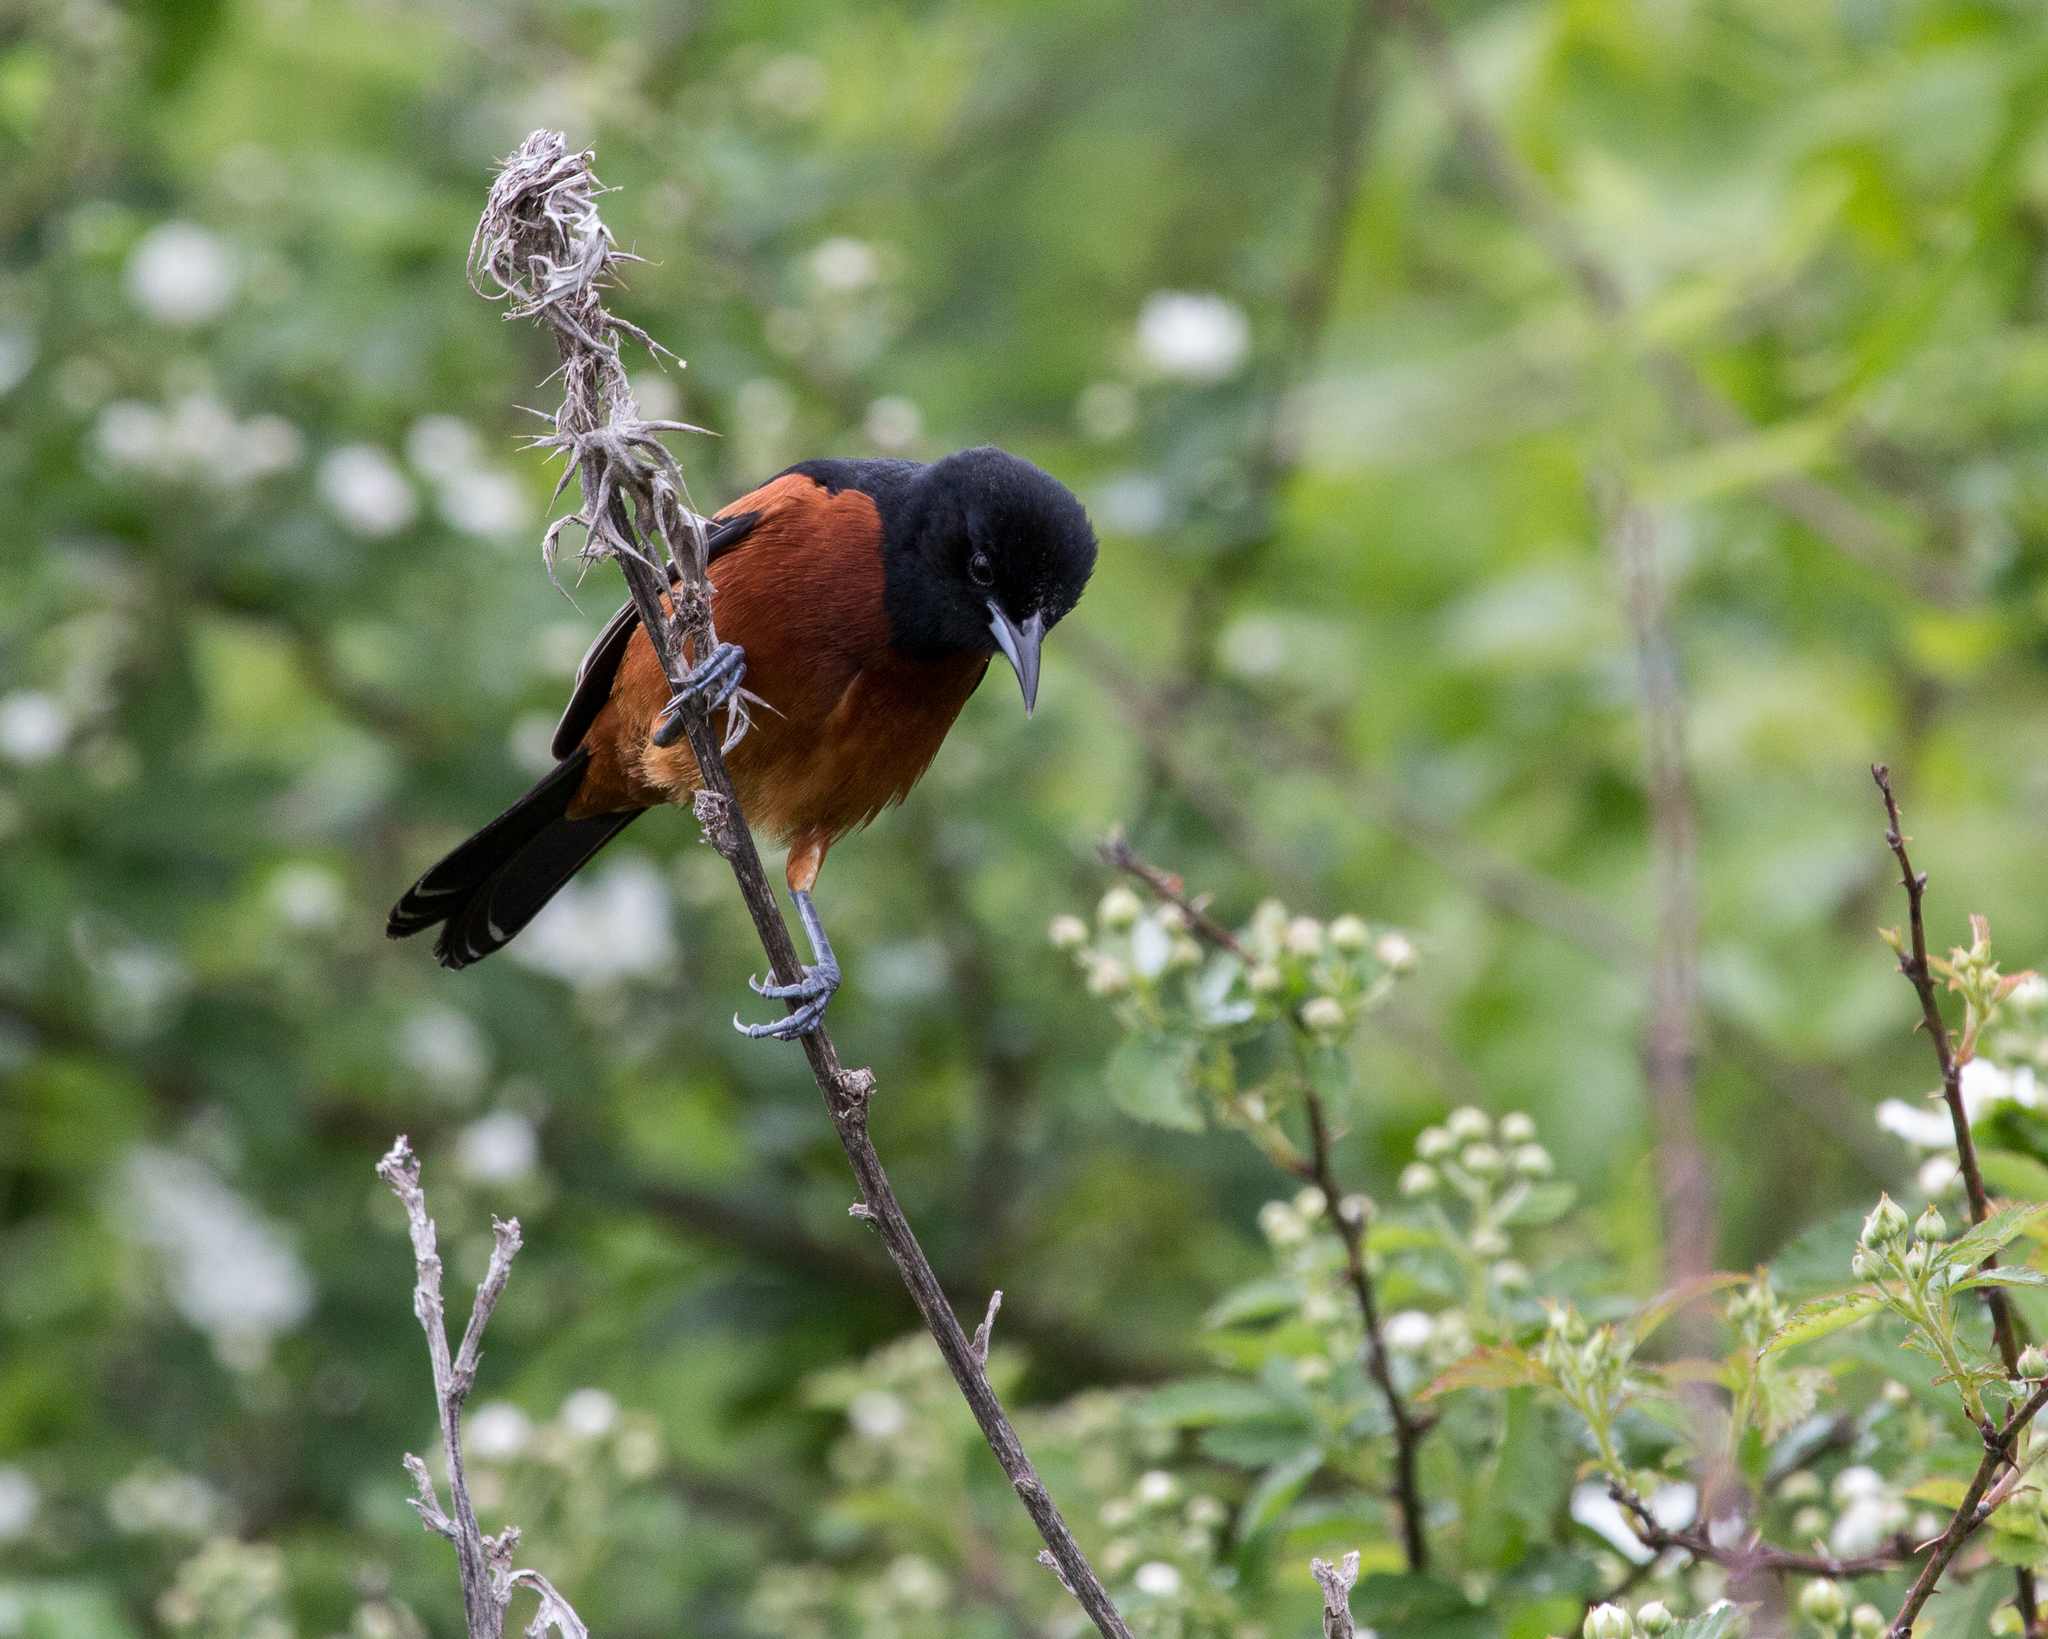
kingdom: Animalia
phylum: Chordata
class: Aves
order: Passeriformes
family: Icteridae
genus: Icterus
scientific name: Icterus spurius
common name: Orchard oriole
